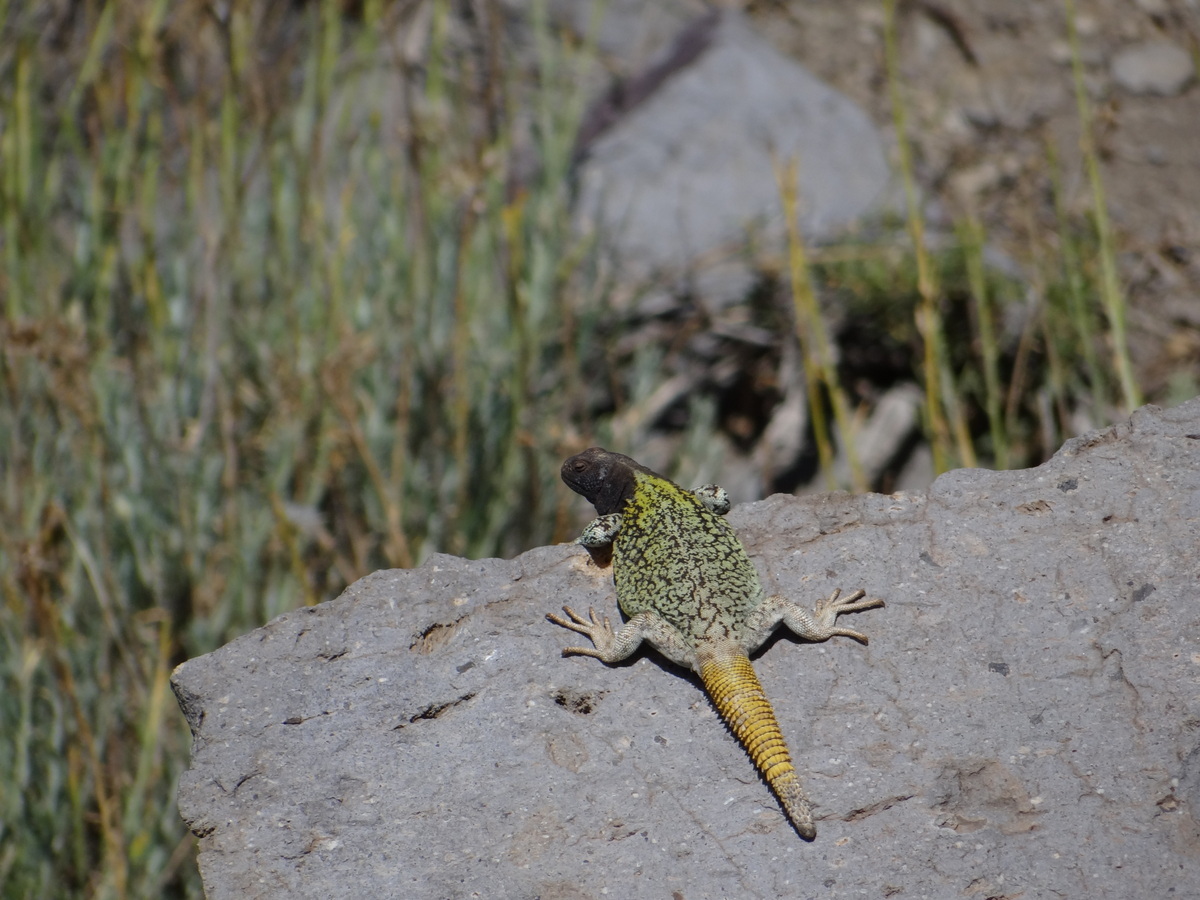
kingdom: Animalia
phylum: Chordata
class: Squamata
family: Liolaemidae
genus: Phymaturus
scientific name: Phymaturus verdugo
